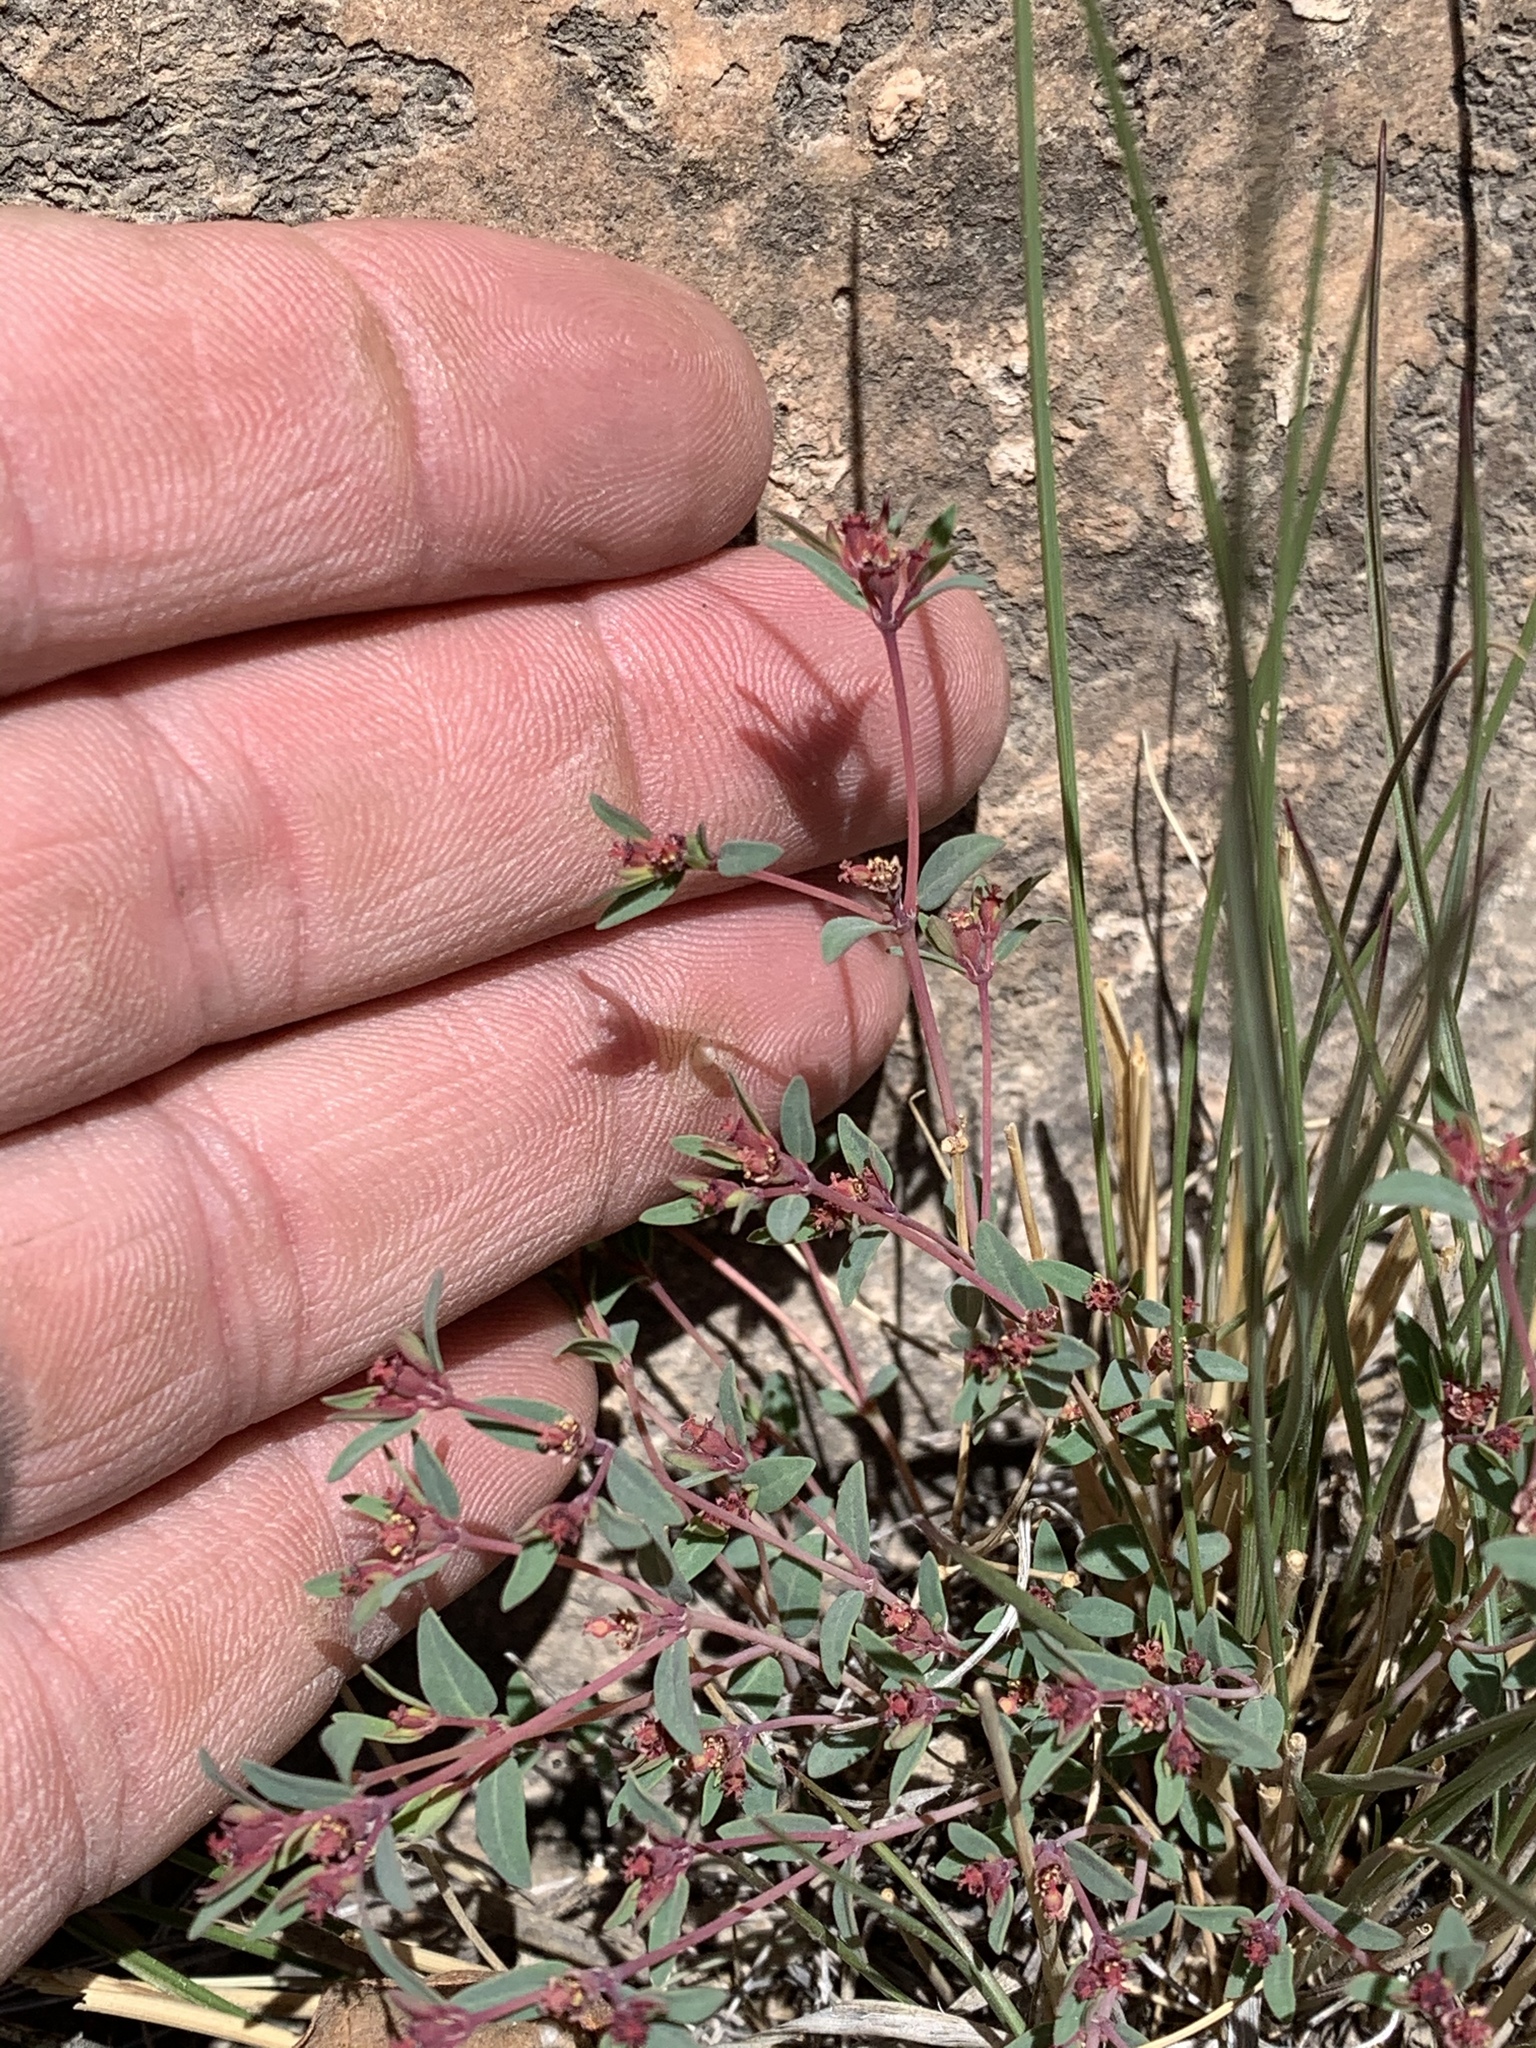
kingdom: Plantae
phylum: Tracheophyta
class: Magnoliopsida
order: Malpighiales
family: Euphorbiaceae
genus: Euphorbia
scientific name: Euphorbia chaetocalyx
